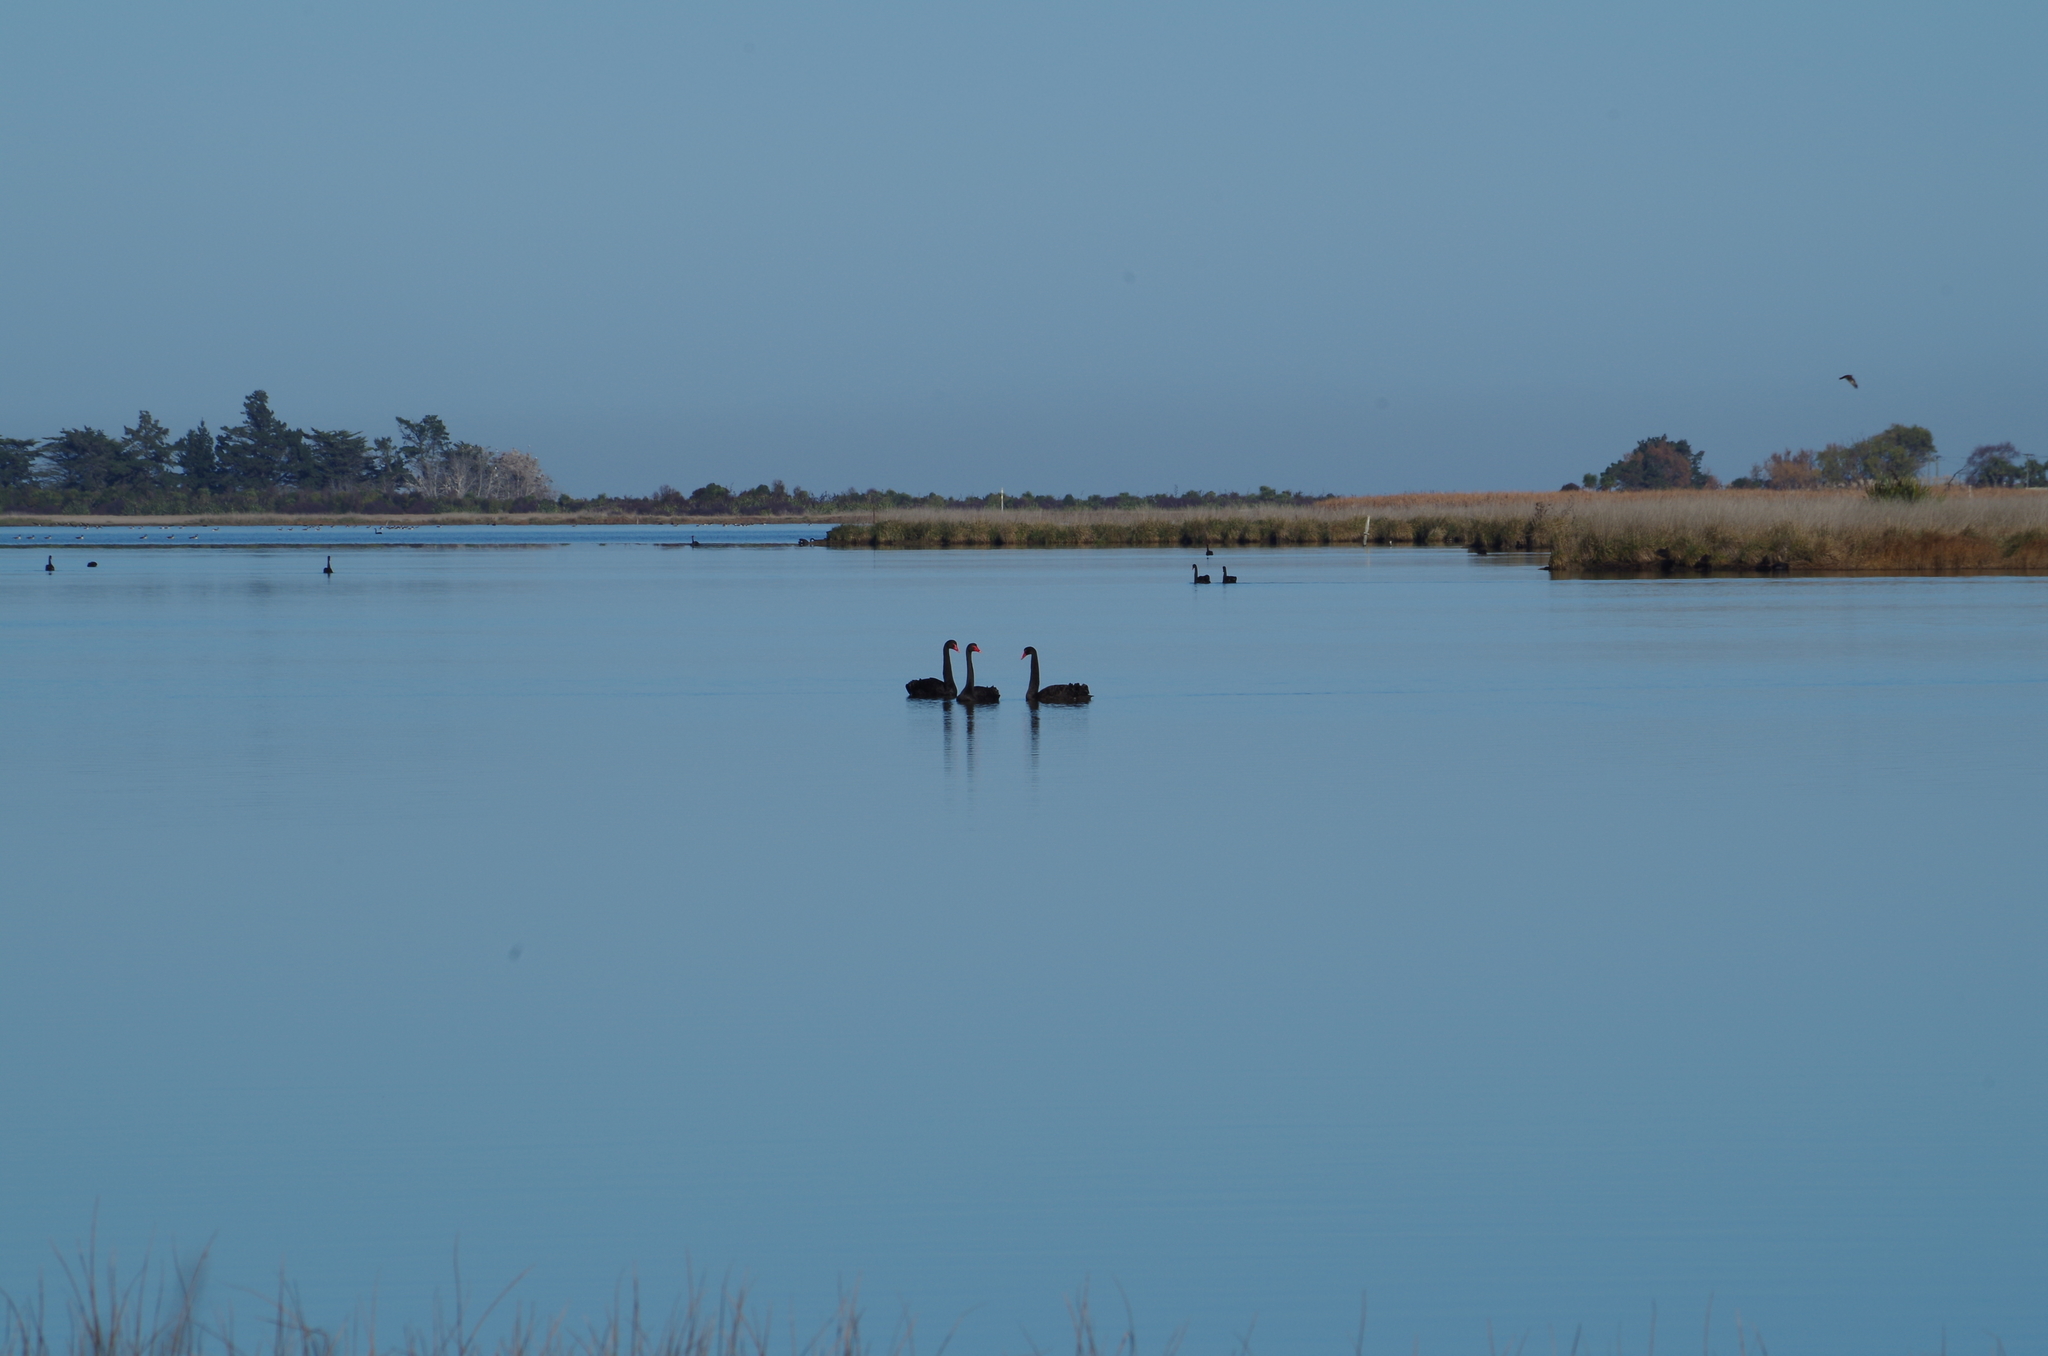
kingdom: Animalia
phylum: Chordata
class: Aves
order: Anseriformes
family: Anatidae
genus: Cygnus
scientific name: Cygnus atratus
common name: Black swan
